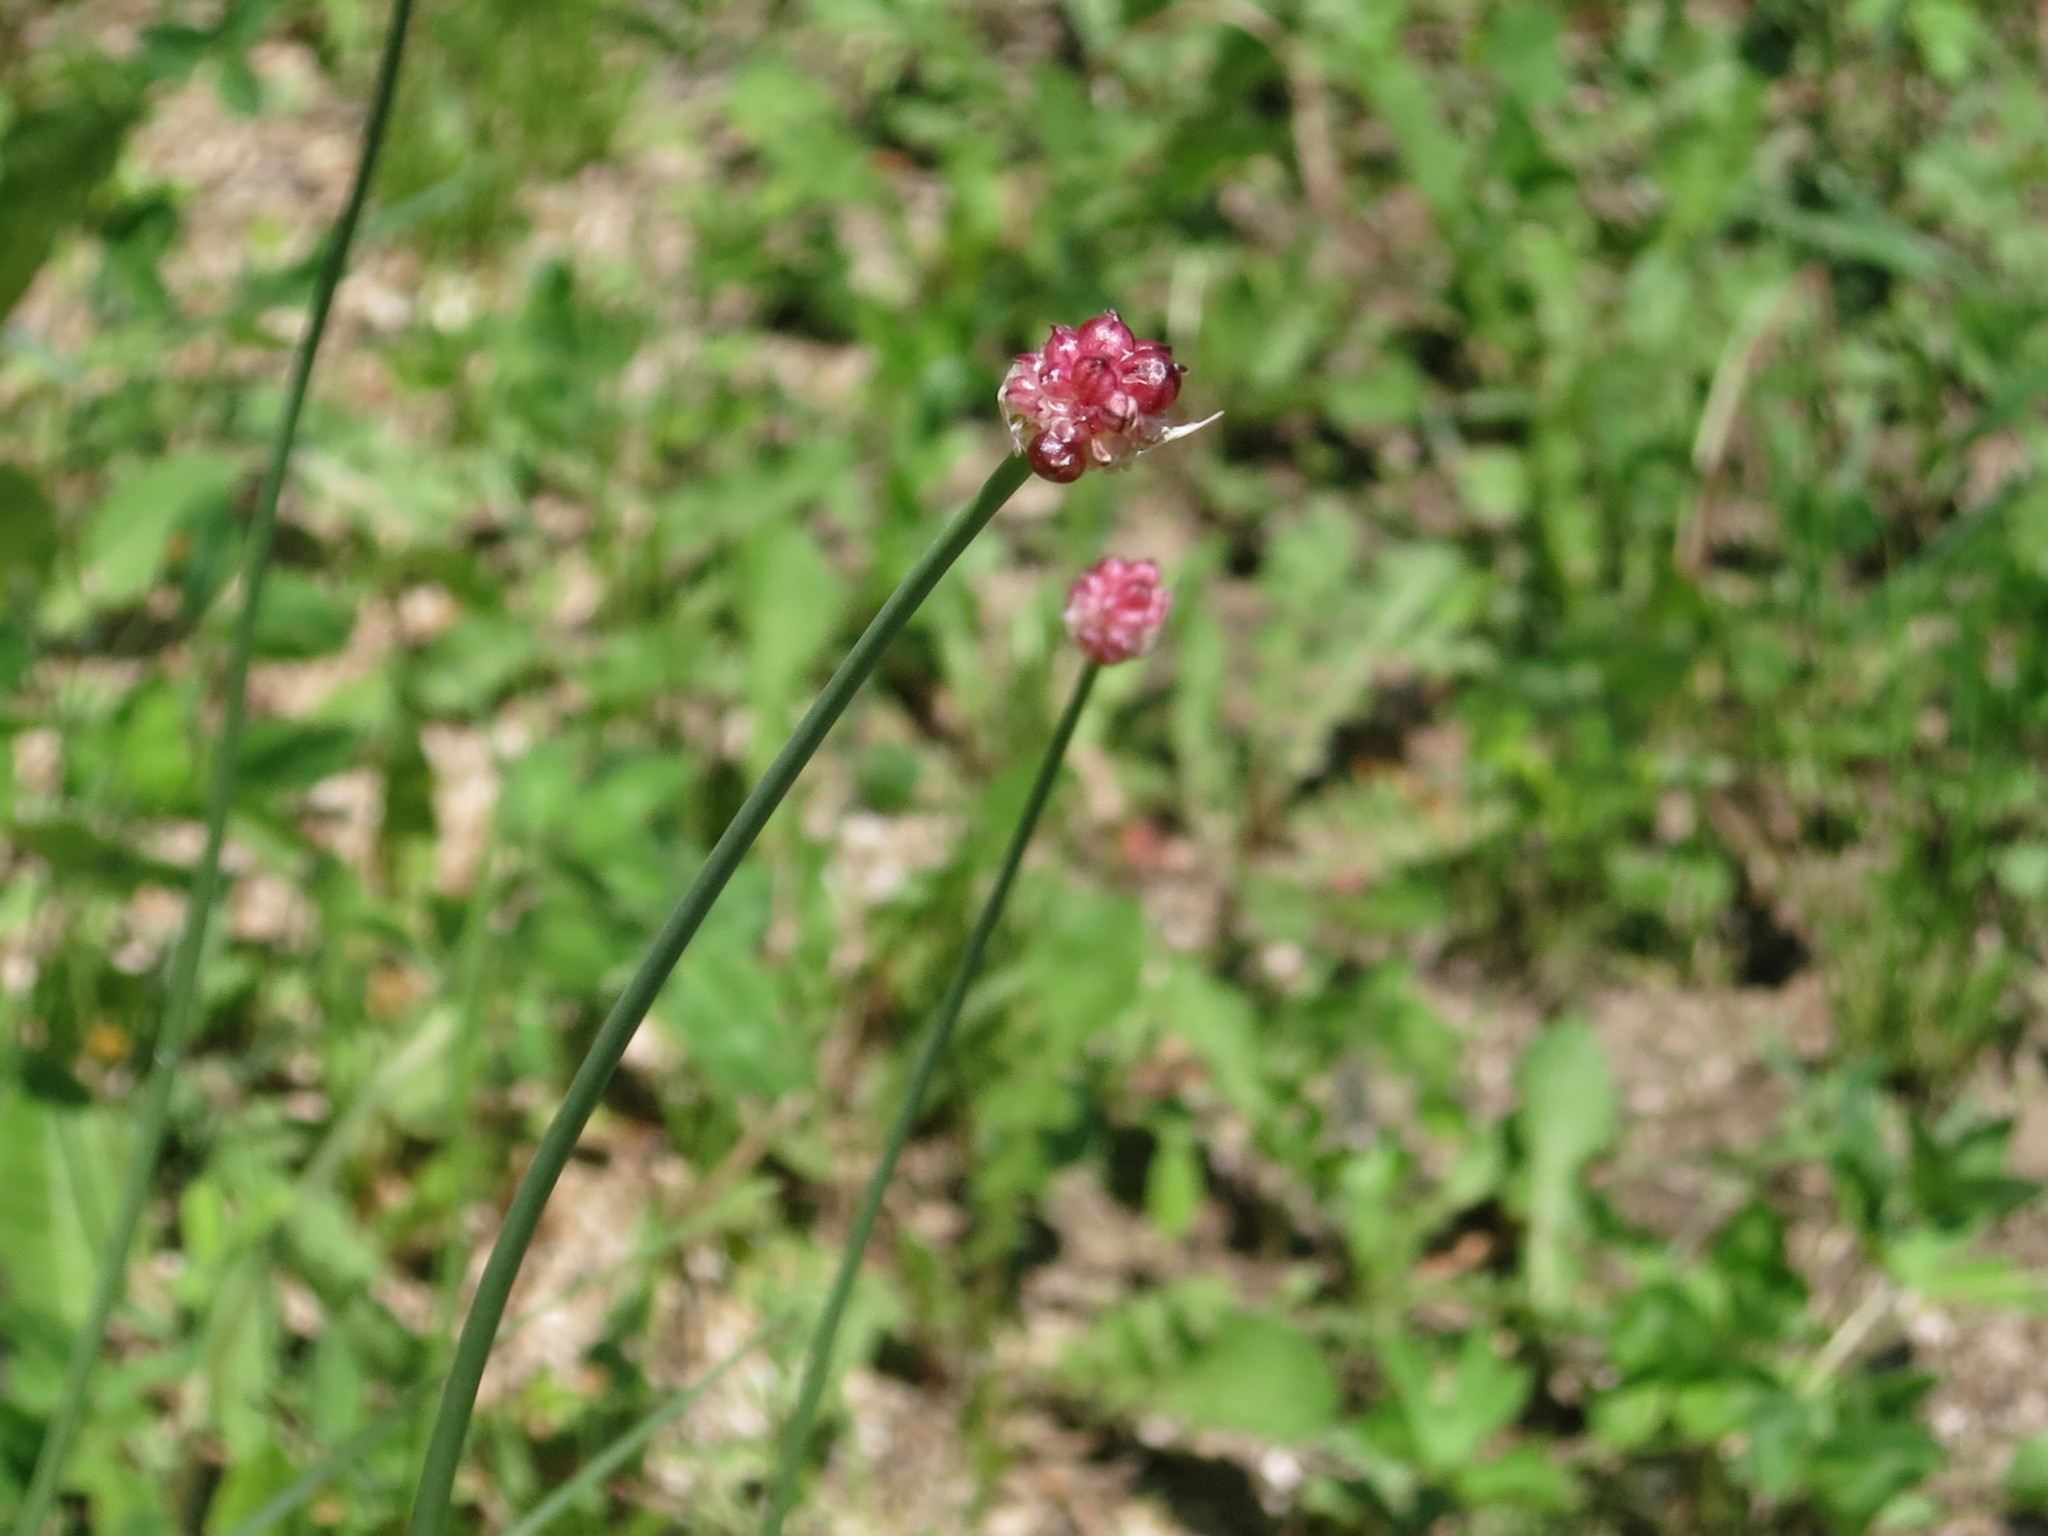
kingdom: Plantae
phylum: Tracheophyta
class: Liliopsida
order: Asparagales
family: Amaryllidaceae
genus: Allium
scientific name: Allium macrostemon
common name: Chinese garlic
